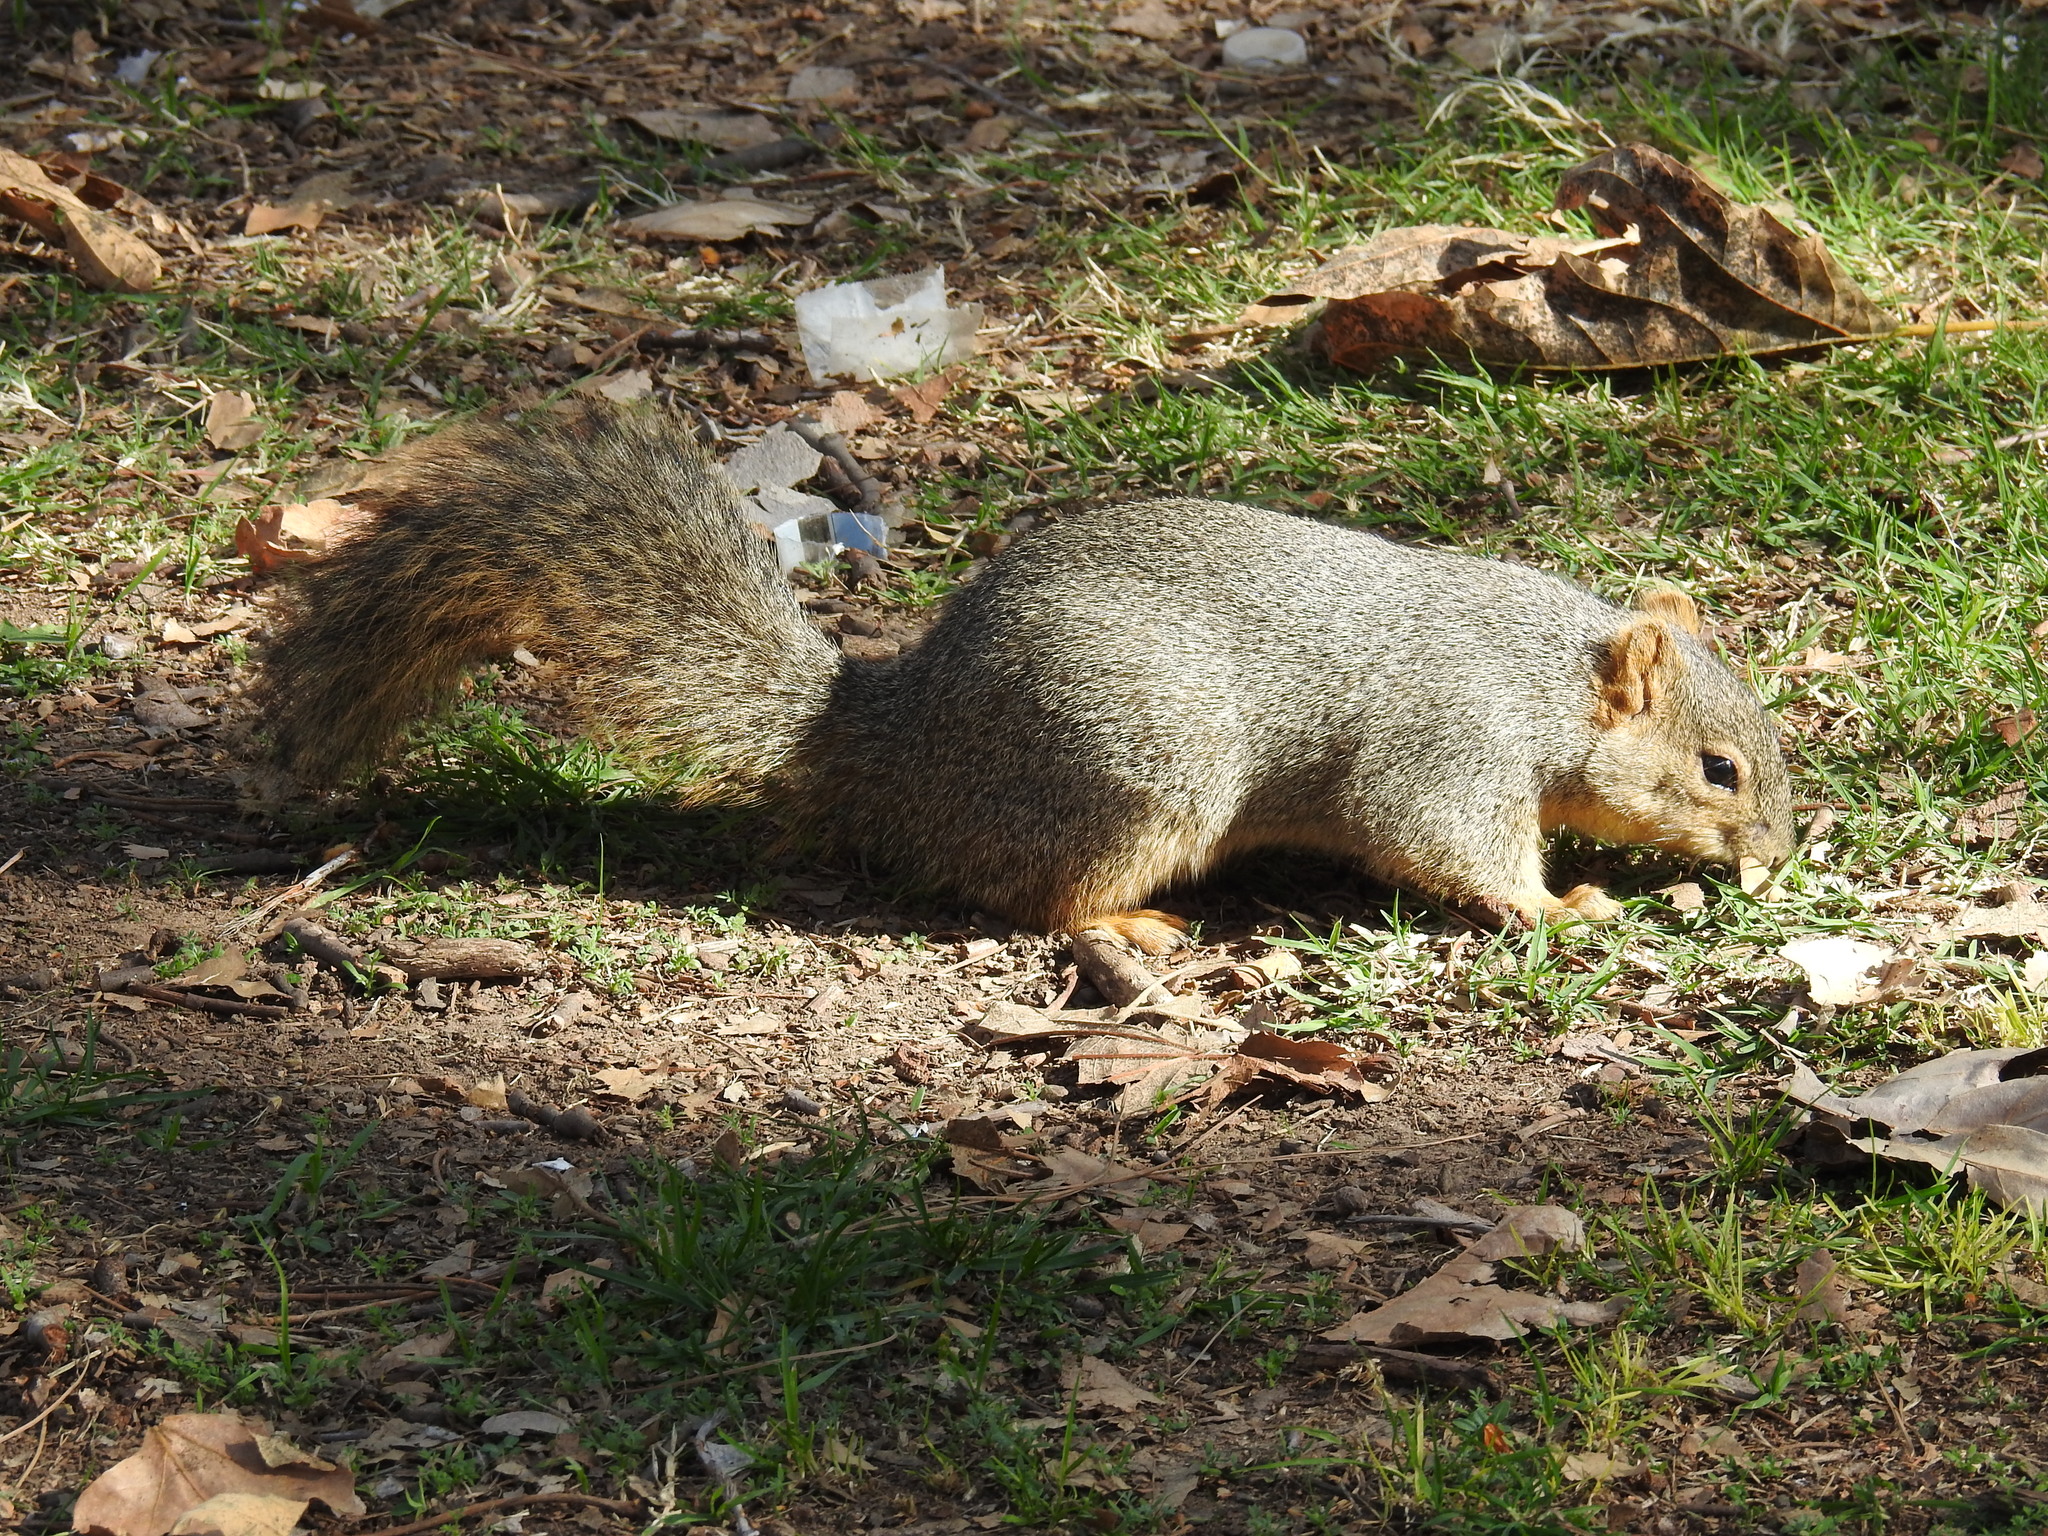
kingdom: Animalia
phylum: Chordata
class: Mammalia
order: Rodentia
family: Sciuridae
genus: Sciurus
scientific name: Sciurus niger
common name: Fox squirrel
